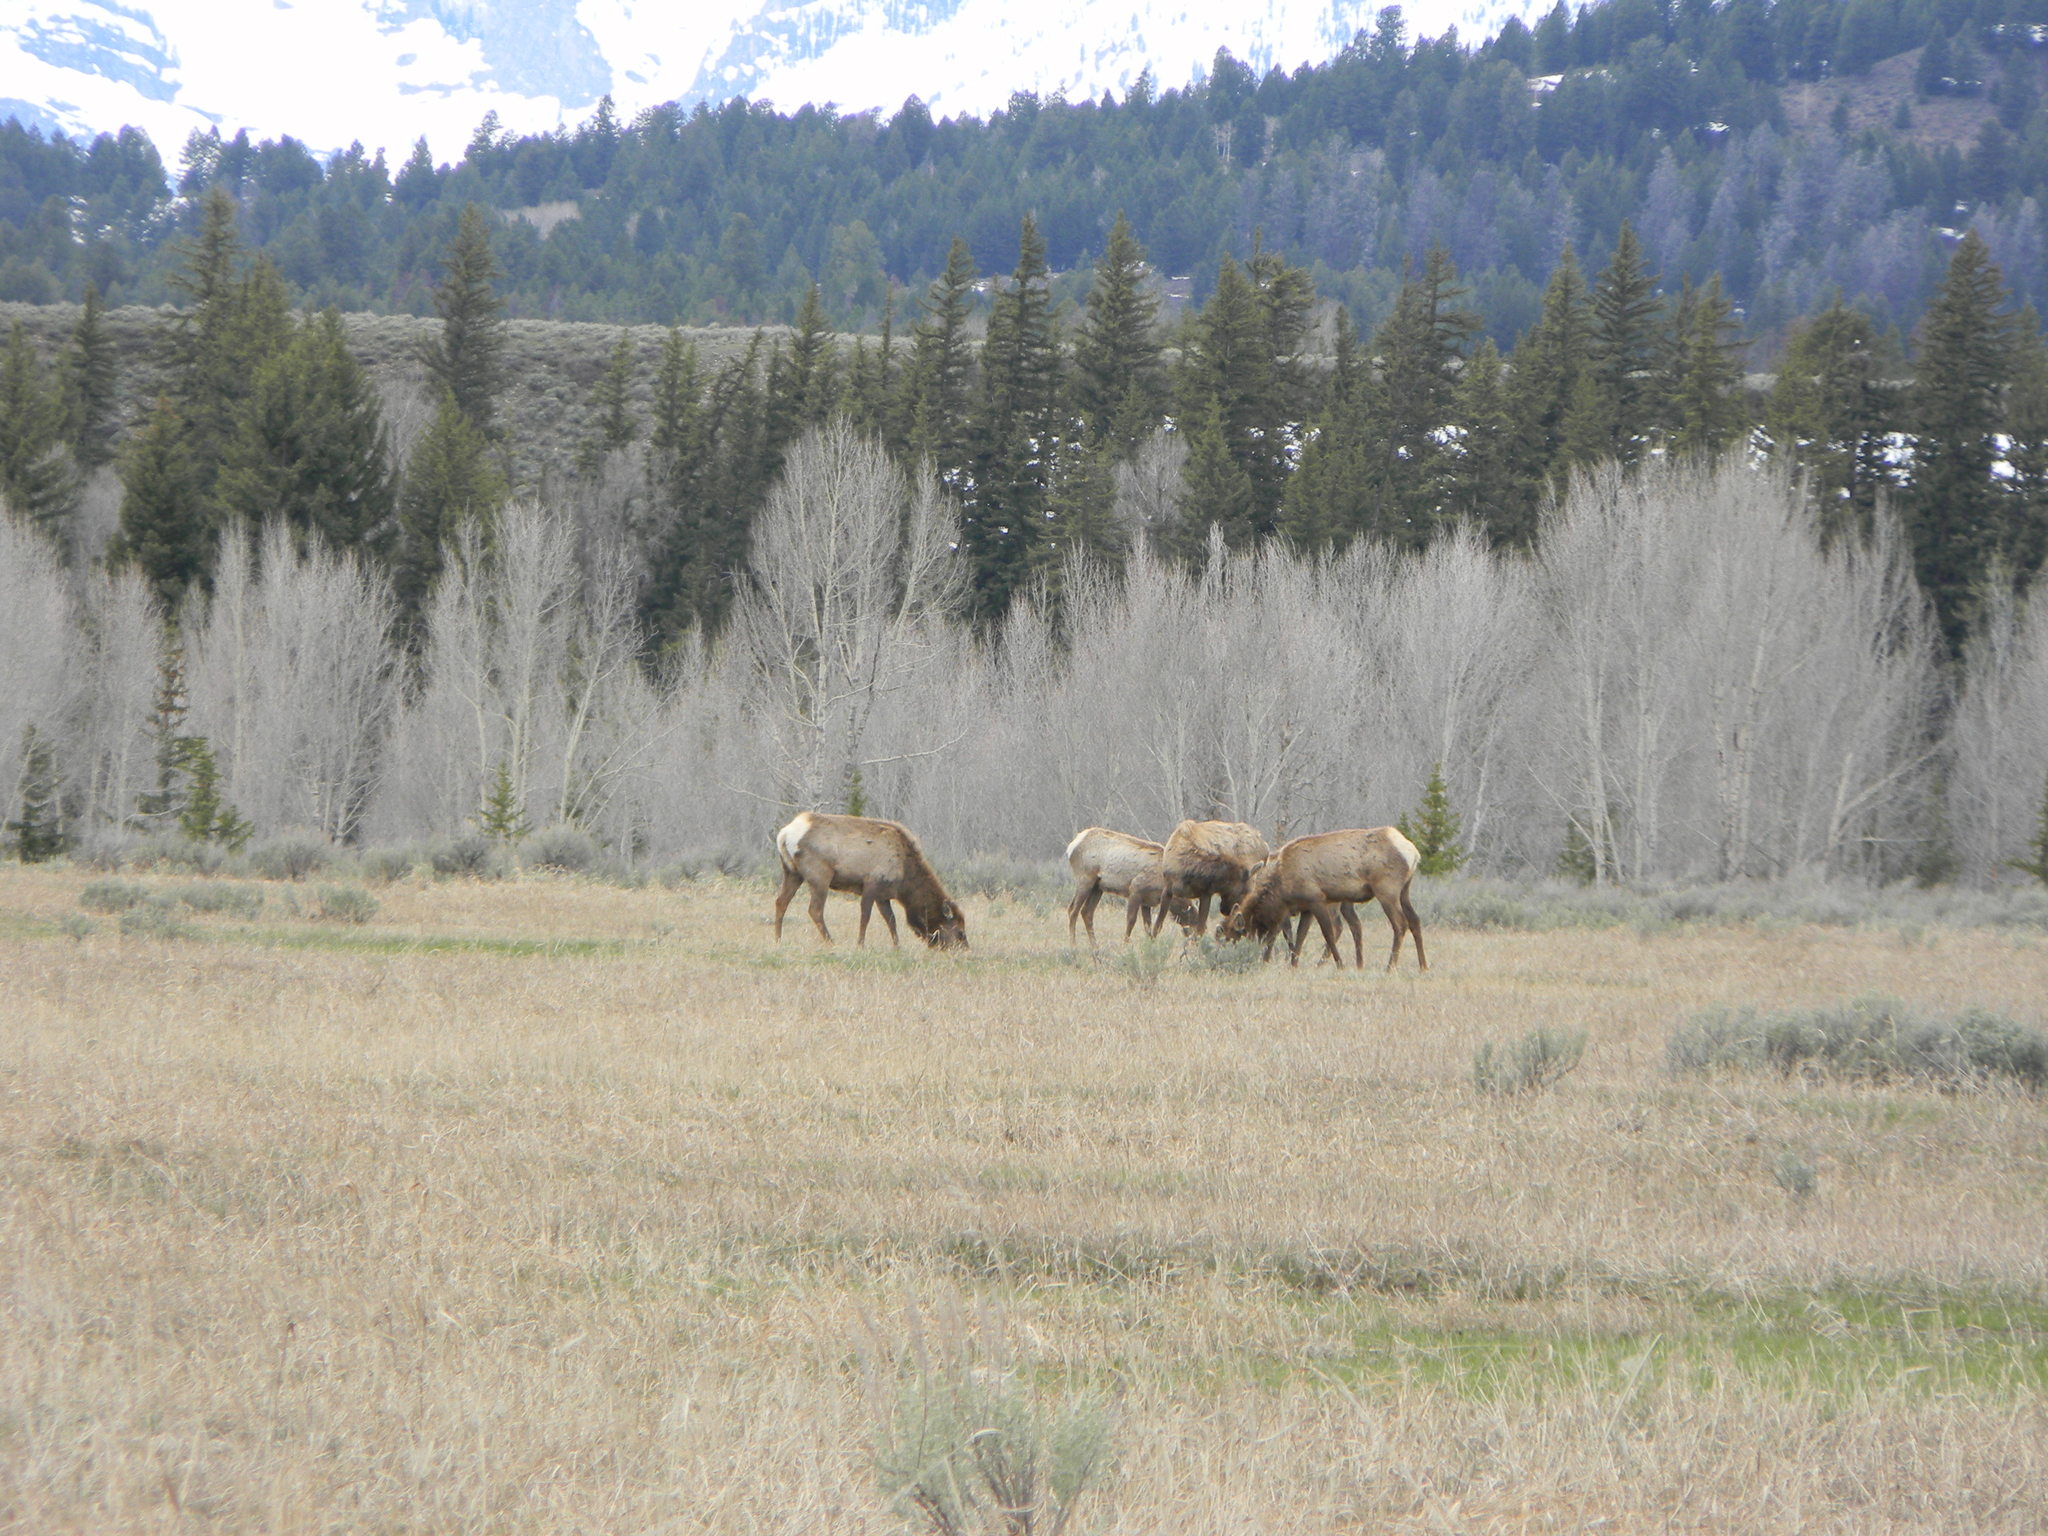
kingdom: Animalia
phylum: Chordata
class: Mammalia
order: Artiodactyla
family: Cervidae
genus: Cervus
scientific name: Cervus elaphus
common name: Red deer
